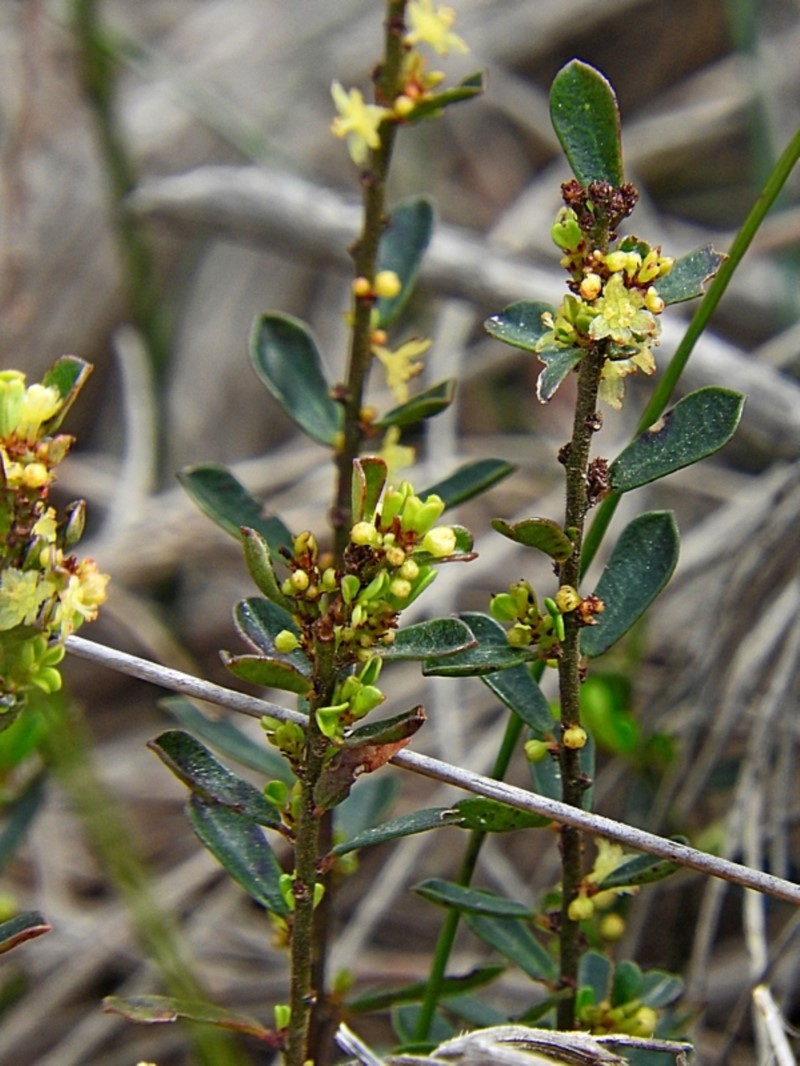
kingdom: Plantae
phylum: Tracheophyta
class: Magnoliopsida
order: Malpighiales
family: Phyllanthaceae
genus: Phyllanthus
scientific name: Phyllanthus hirtellus
